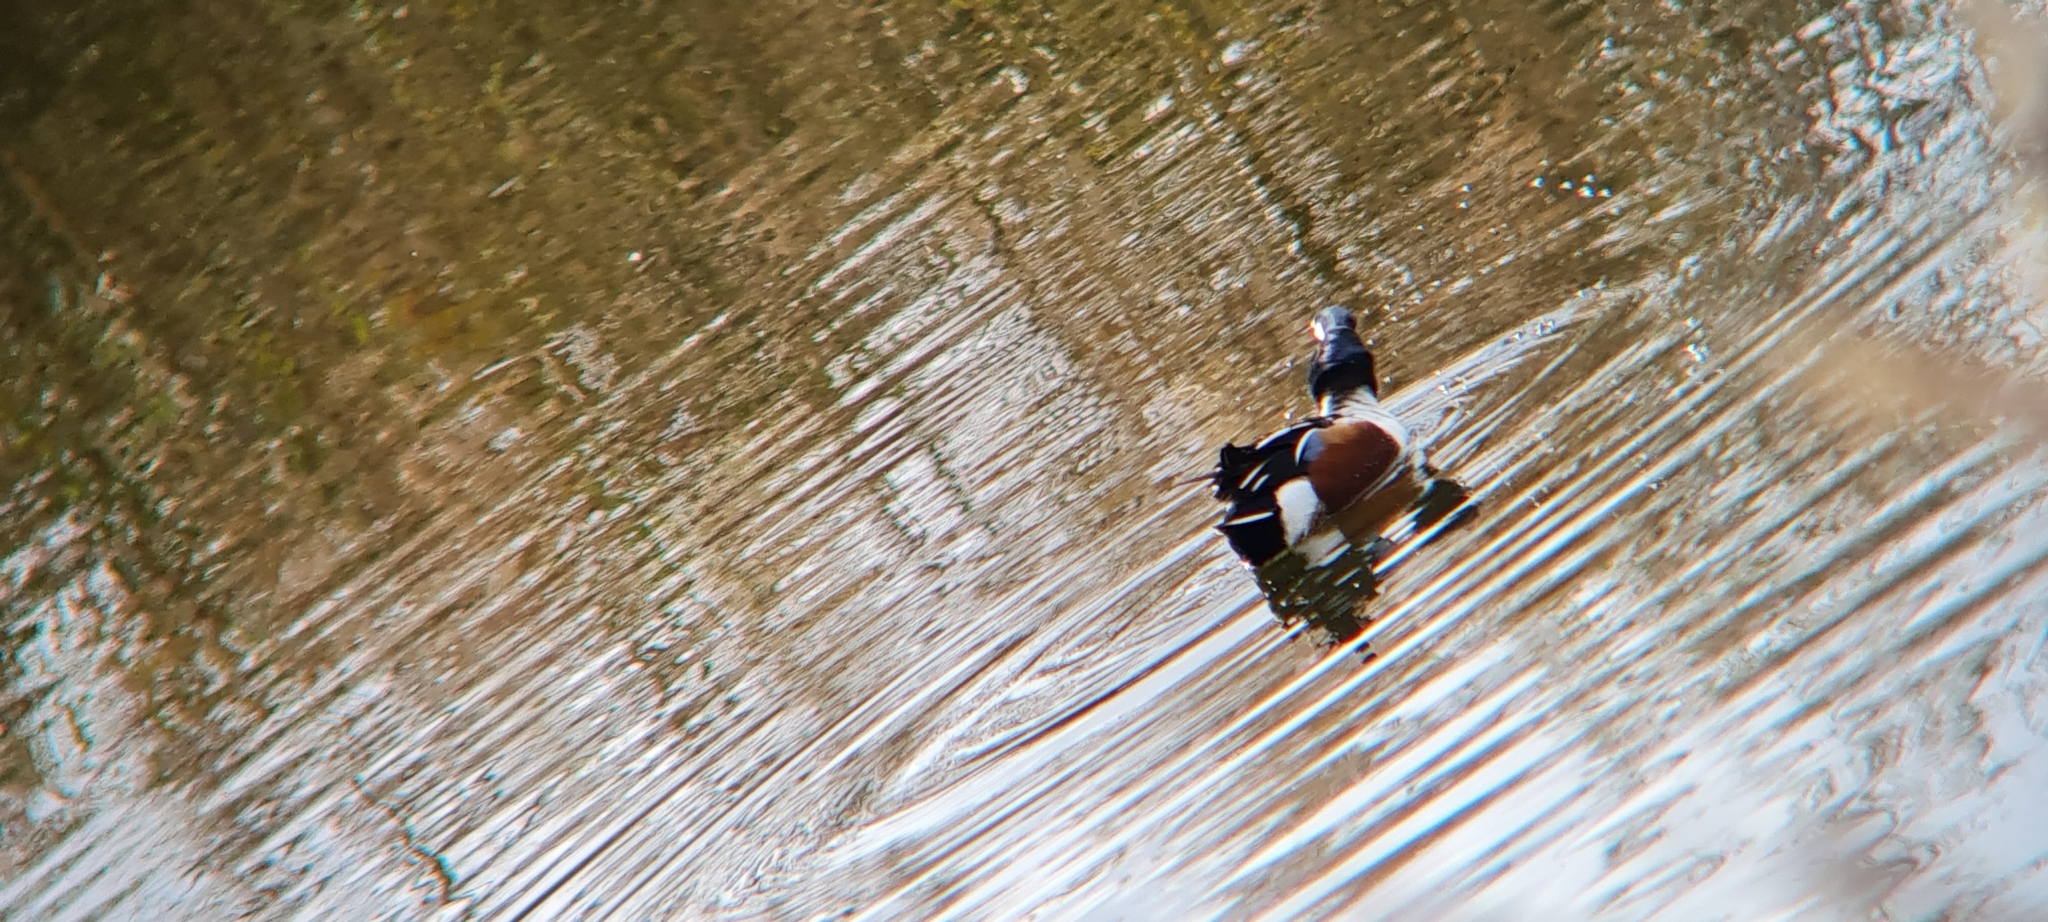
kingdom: Animalia
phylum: Chordata
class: Aves
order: Anseriformes
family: Anatidae
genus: Spatula
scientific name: Spatula clypeata
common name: Northern shoveler
